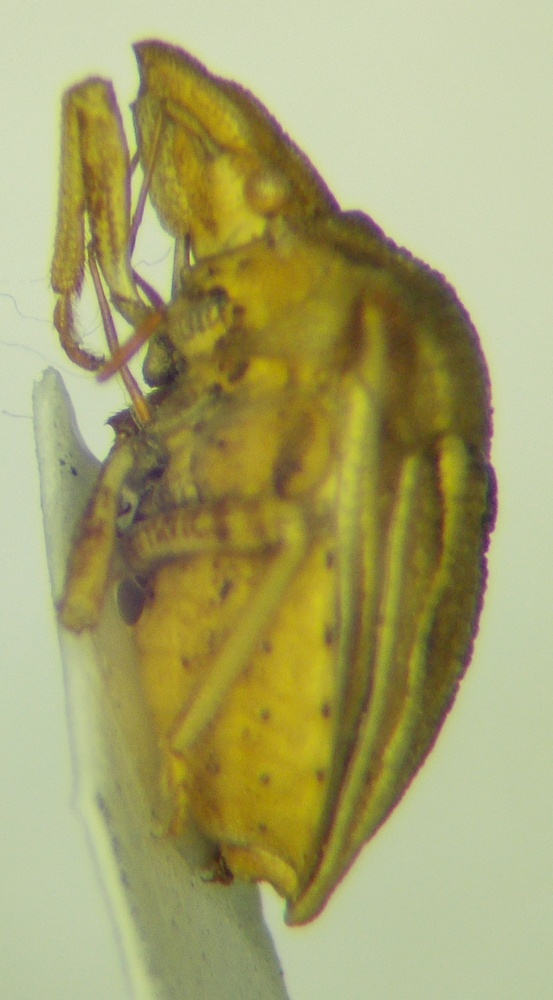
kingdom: Animalia
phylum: Arthropoda
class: Insecta
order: Hemiptera
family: Pentatomidae
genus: Ancyrosoma
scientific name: Ancyrosoma leucogrammes
